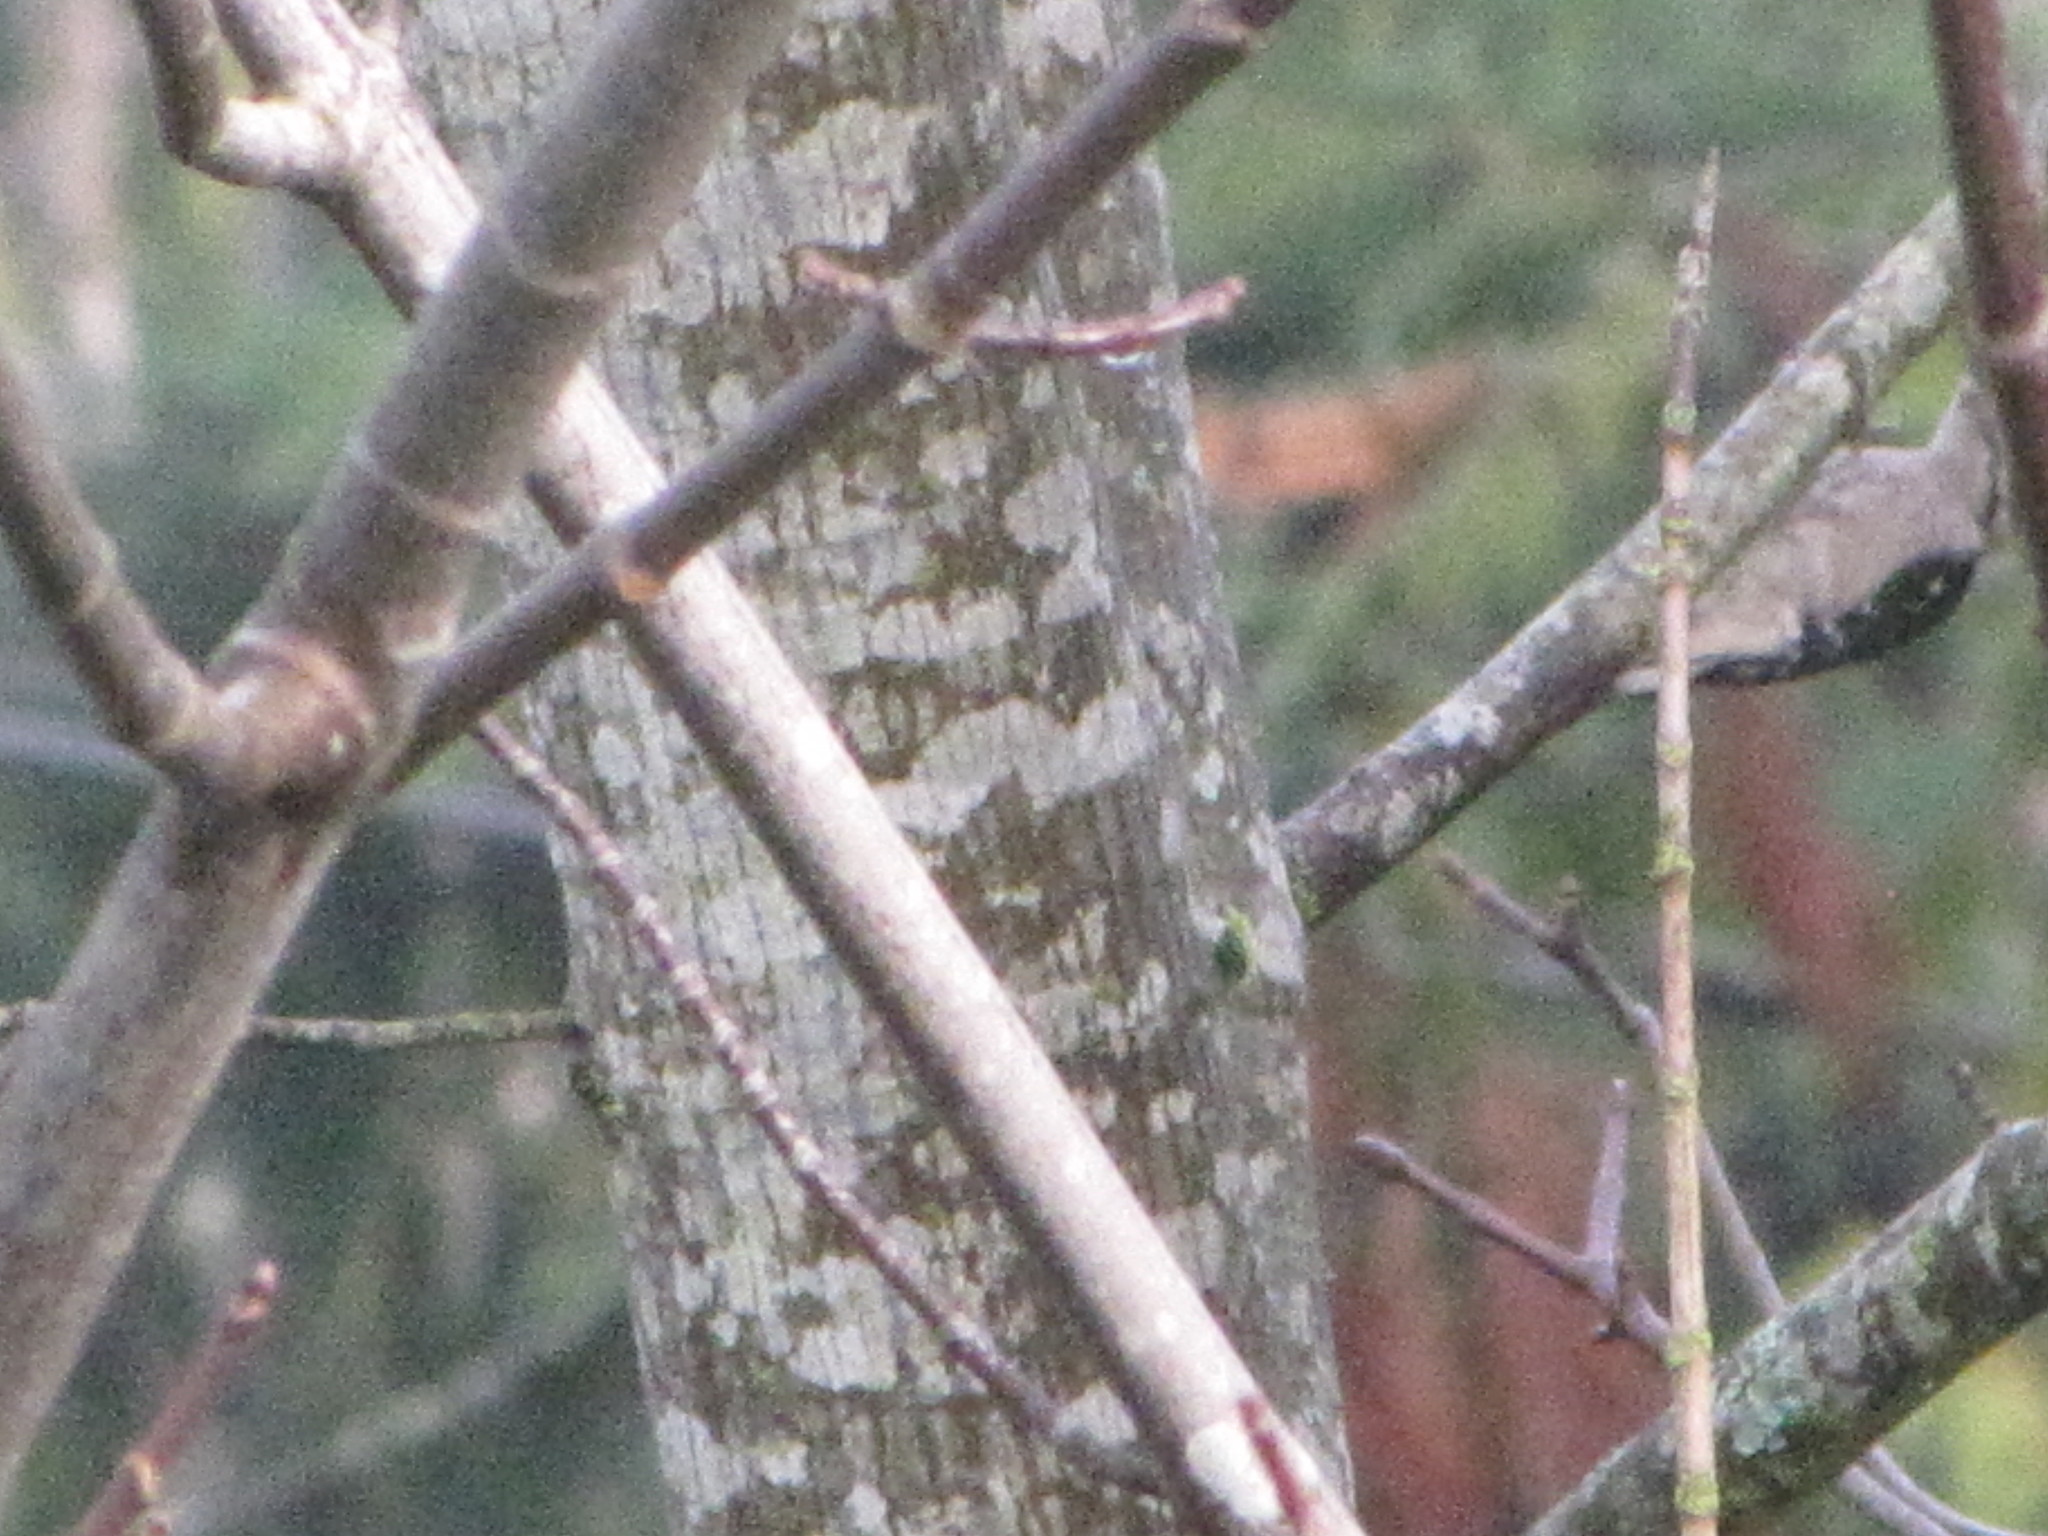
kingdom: Animalia
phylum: Chordata
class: Aves
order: Piciformes
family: Picidae
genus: Dryobates
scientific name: Dryobates pubescens
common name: Downy woodpecker
